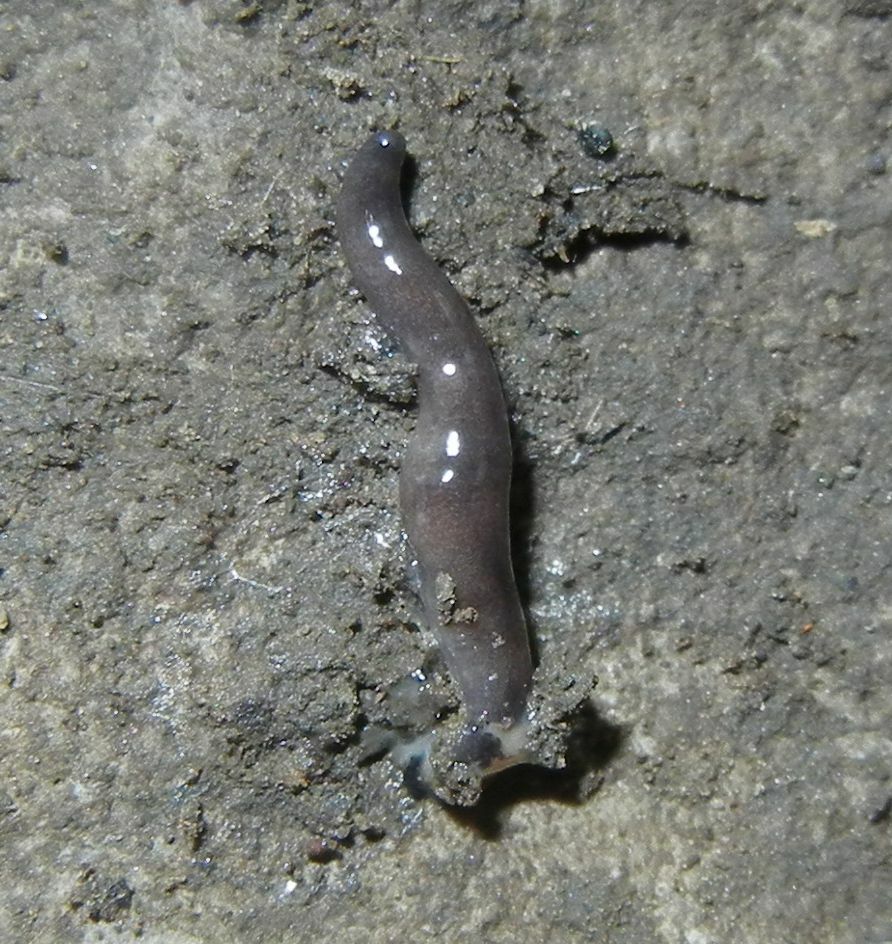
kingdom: Animalia
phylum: Platyhelminthes
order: Tricladida
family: Geoplanidae
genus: Microplana
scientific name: Microplana terrestris
